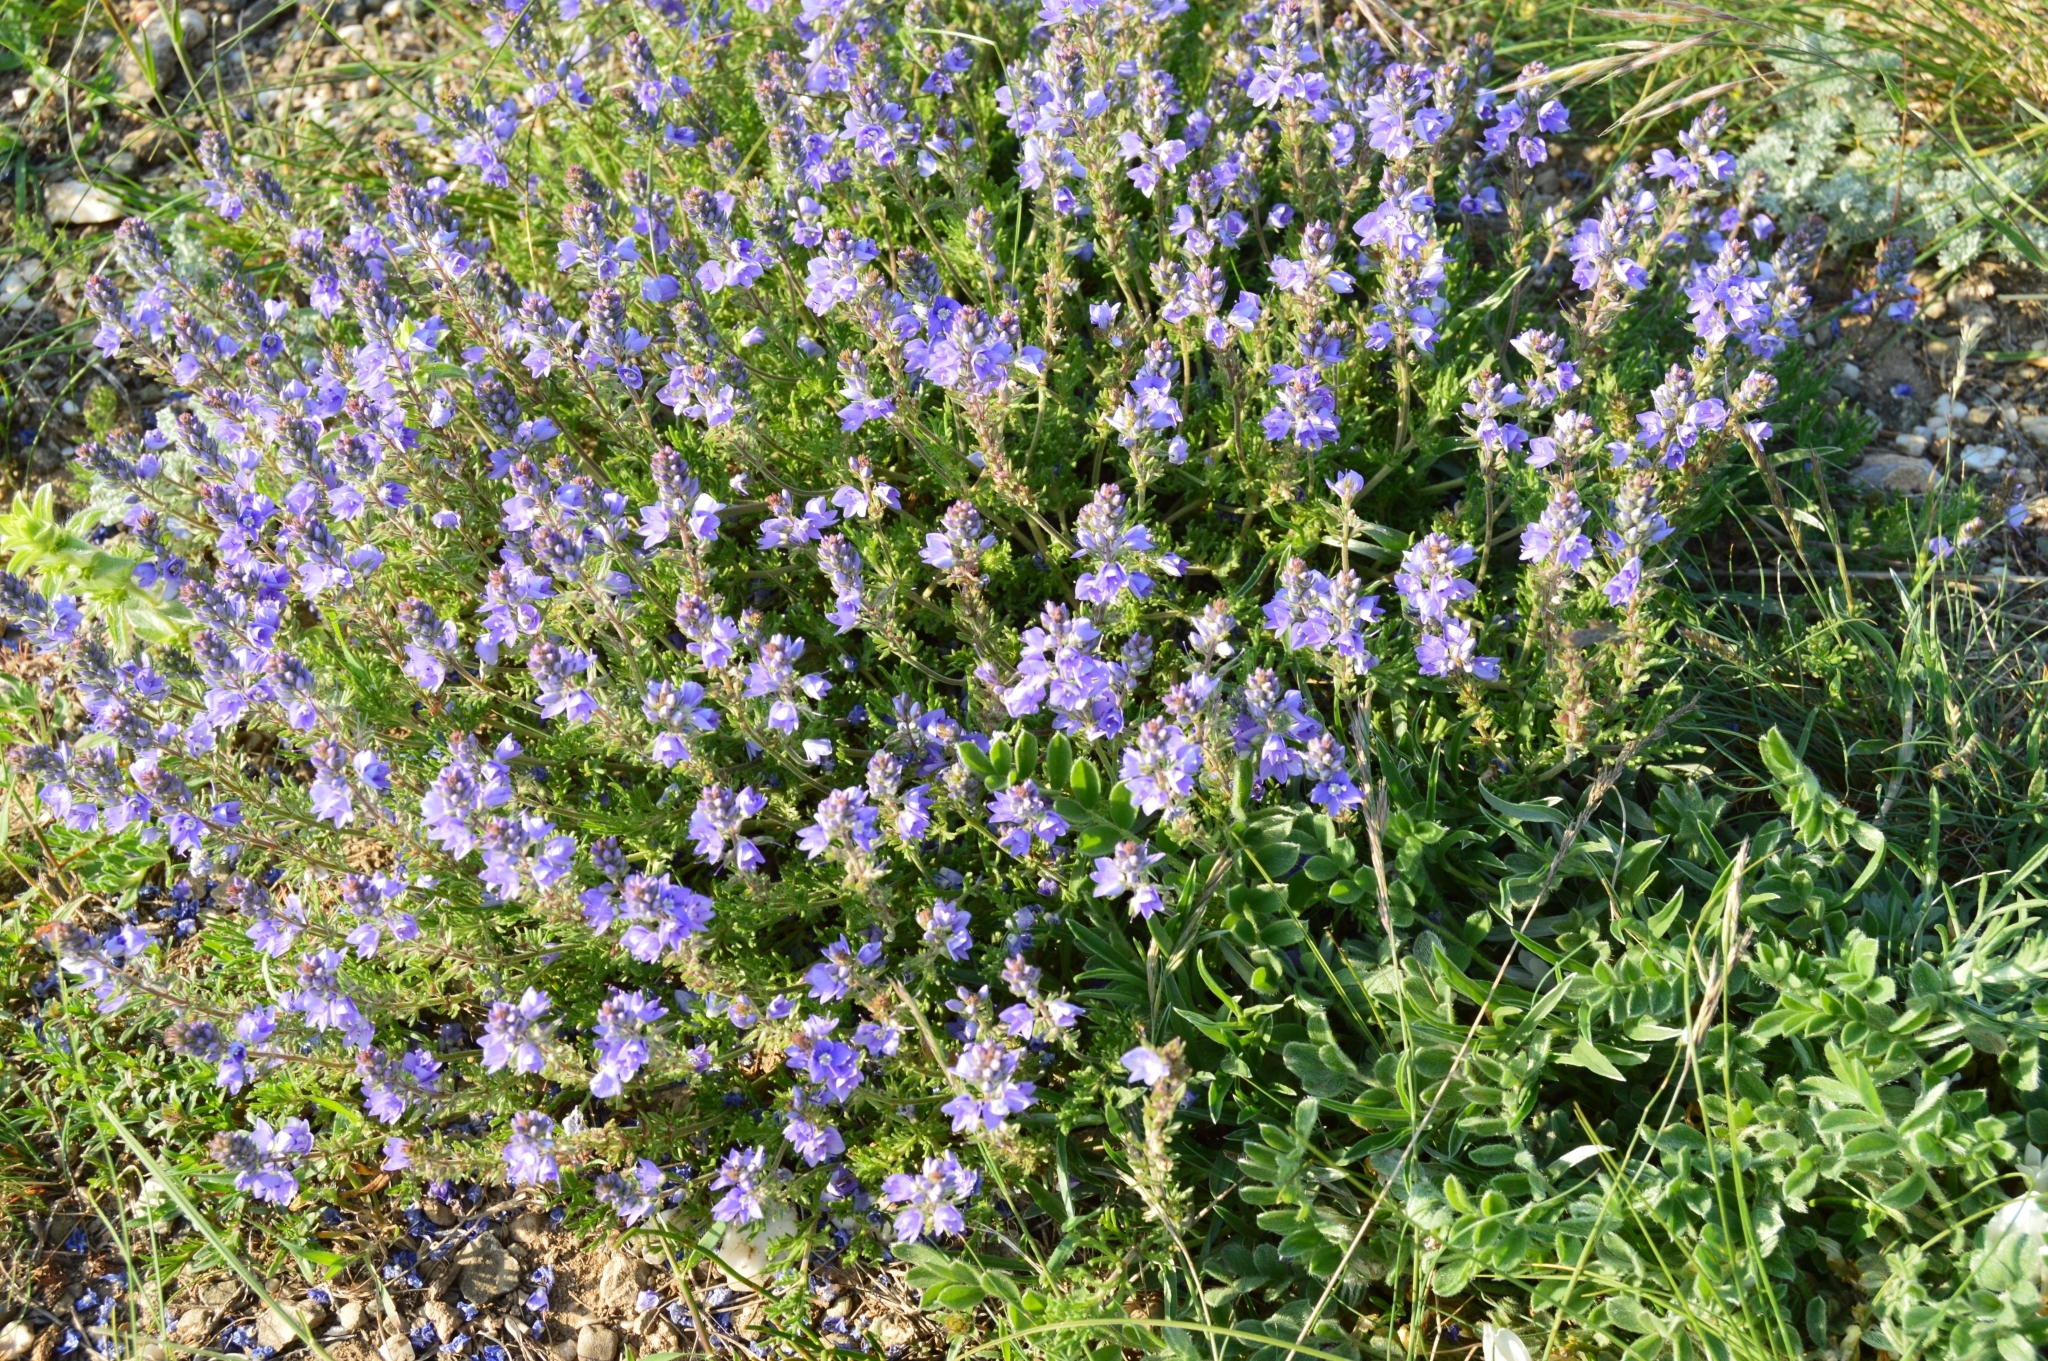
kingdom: Plantae
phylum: Tracheophyta
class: Magnoliopsida
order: Lamiales
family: Plantaginaceae
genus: Veronica
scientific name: Veronica capsellicarpa
